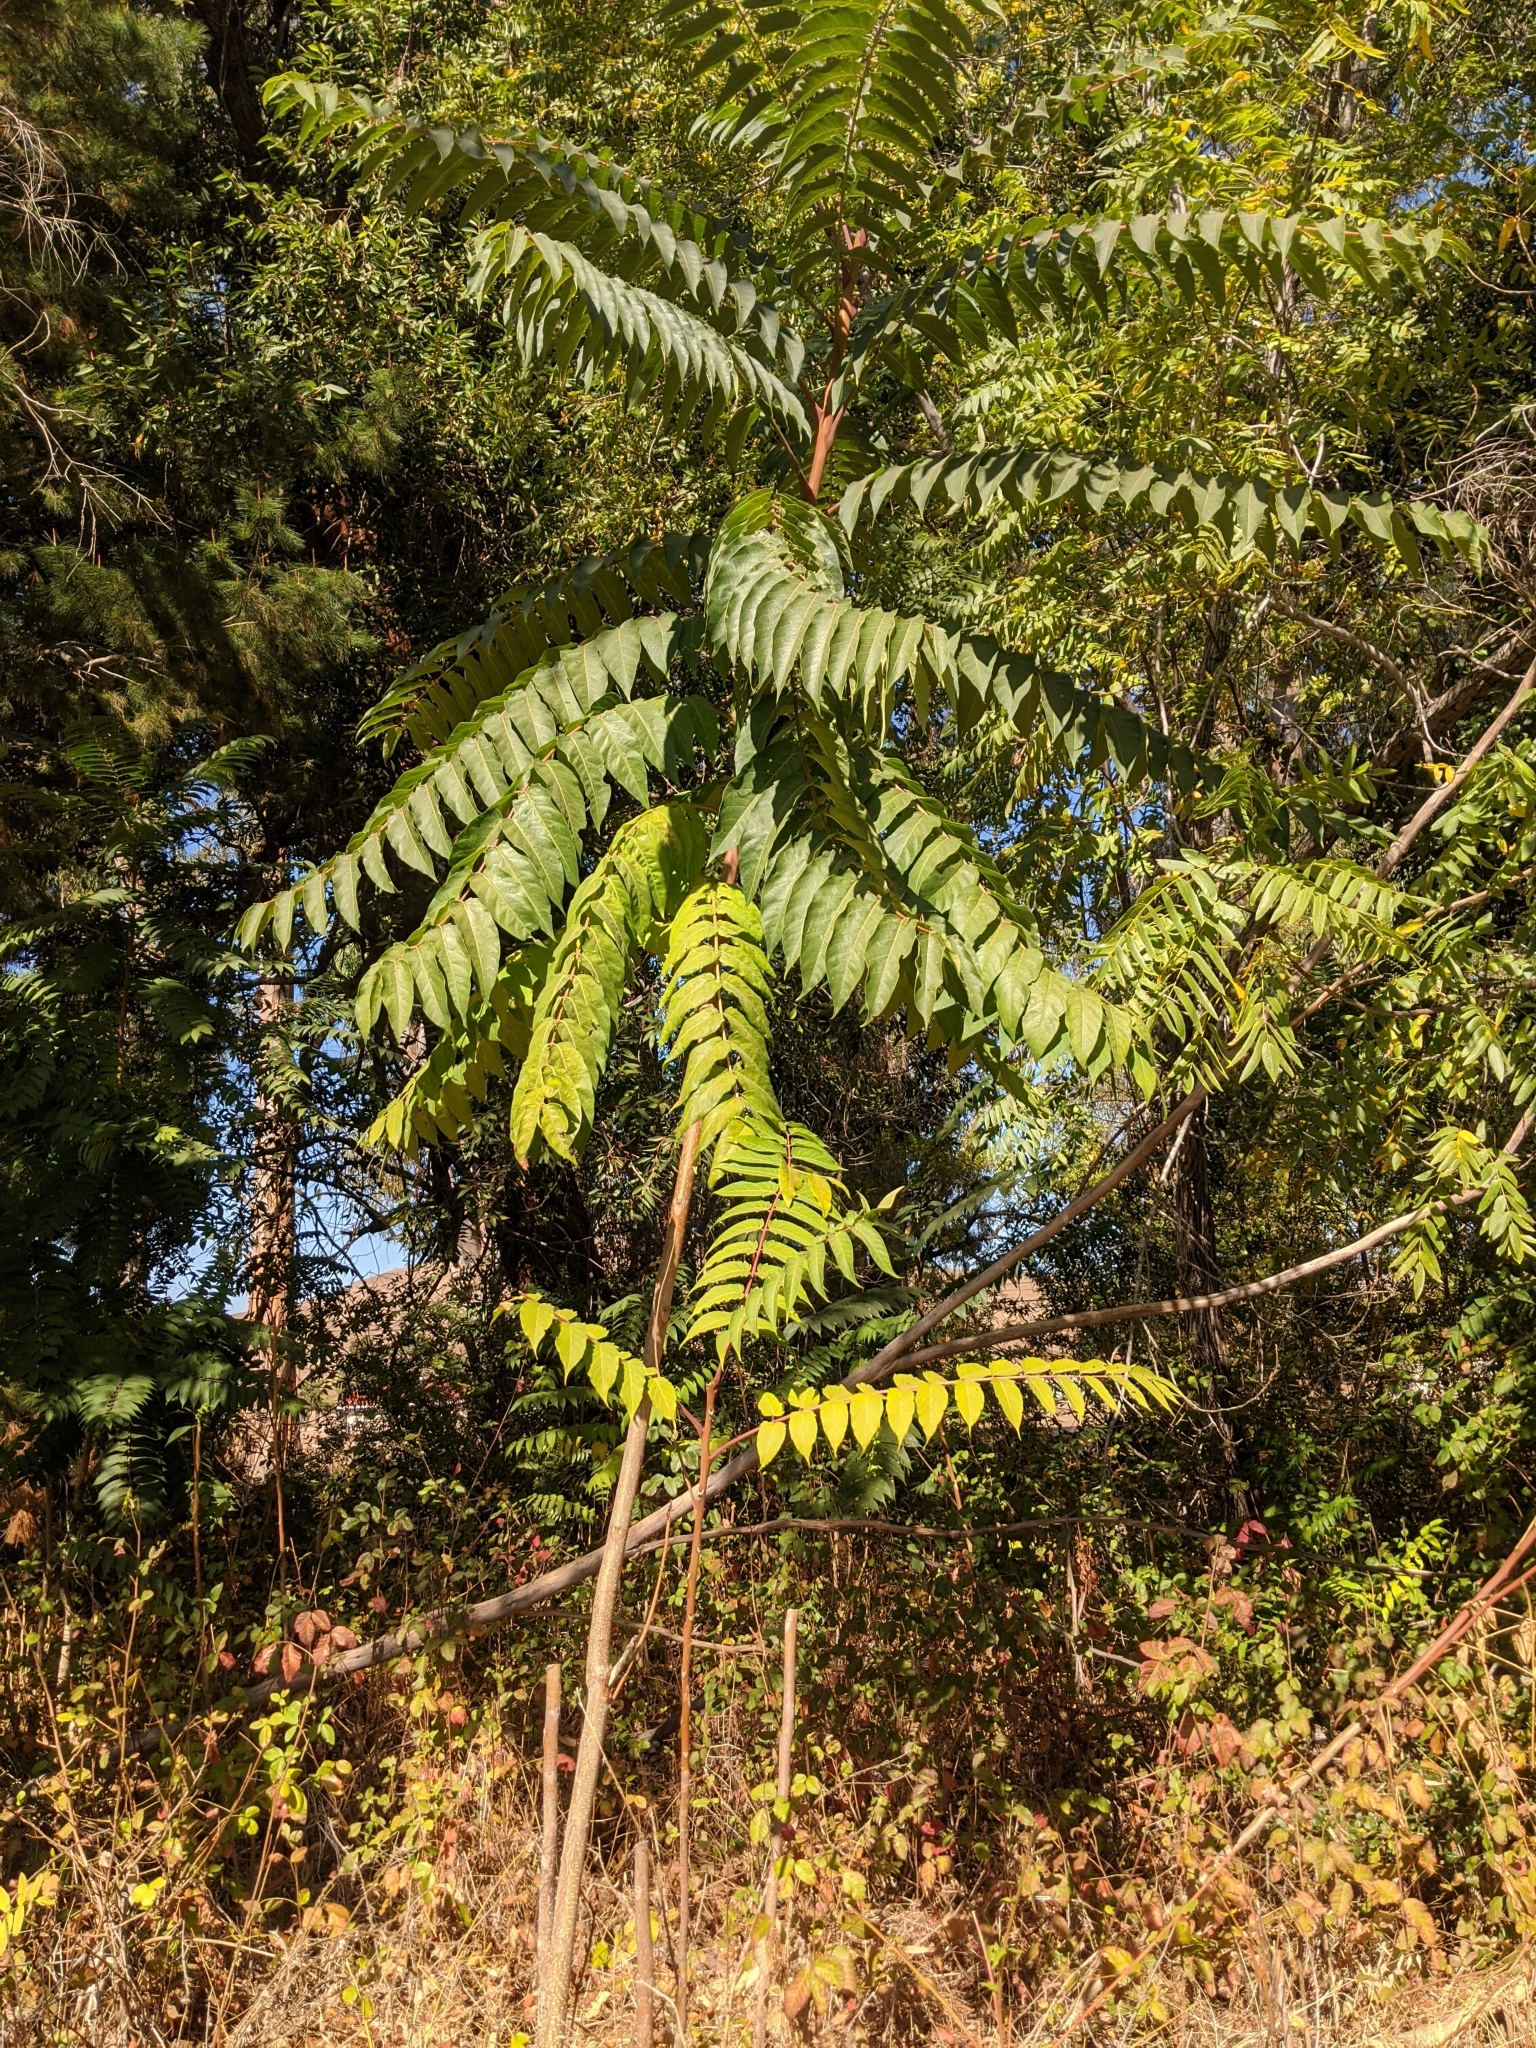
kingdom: Plantae
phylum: Tracheophyta
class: Magnoliopsida
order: Sapindales
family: Simaroubaceae
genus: Ailanthus
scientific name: Ailanthus altissima
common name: Tree-of-heaven
